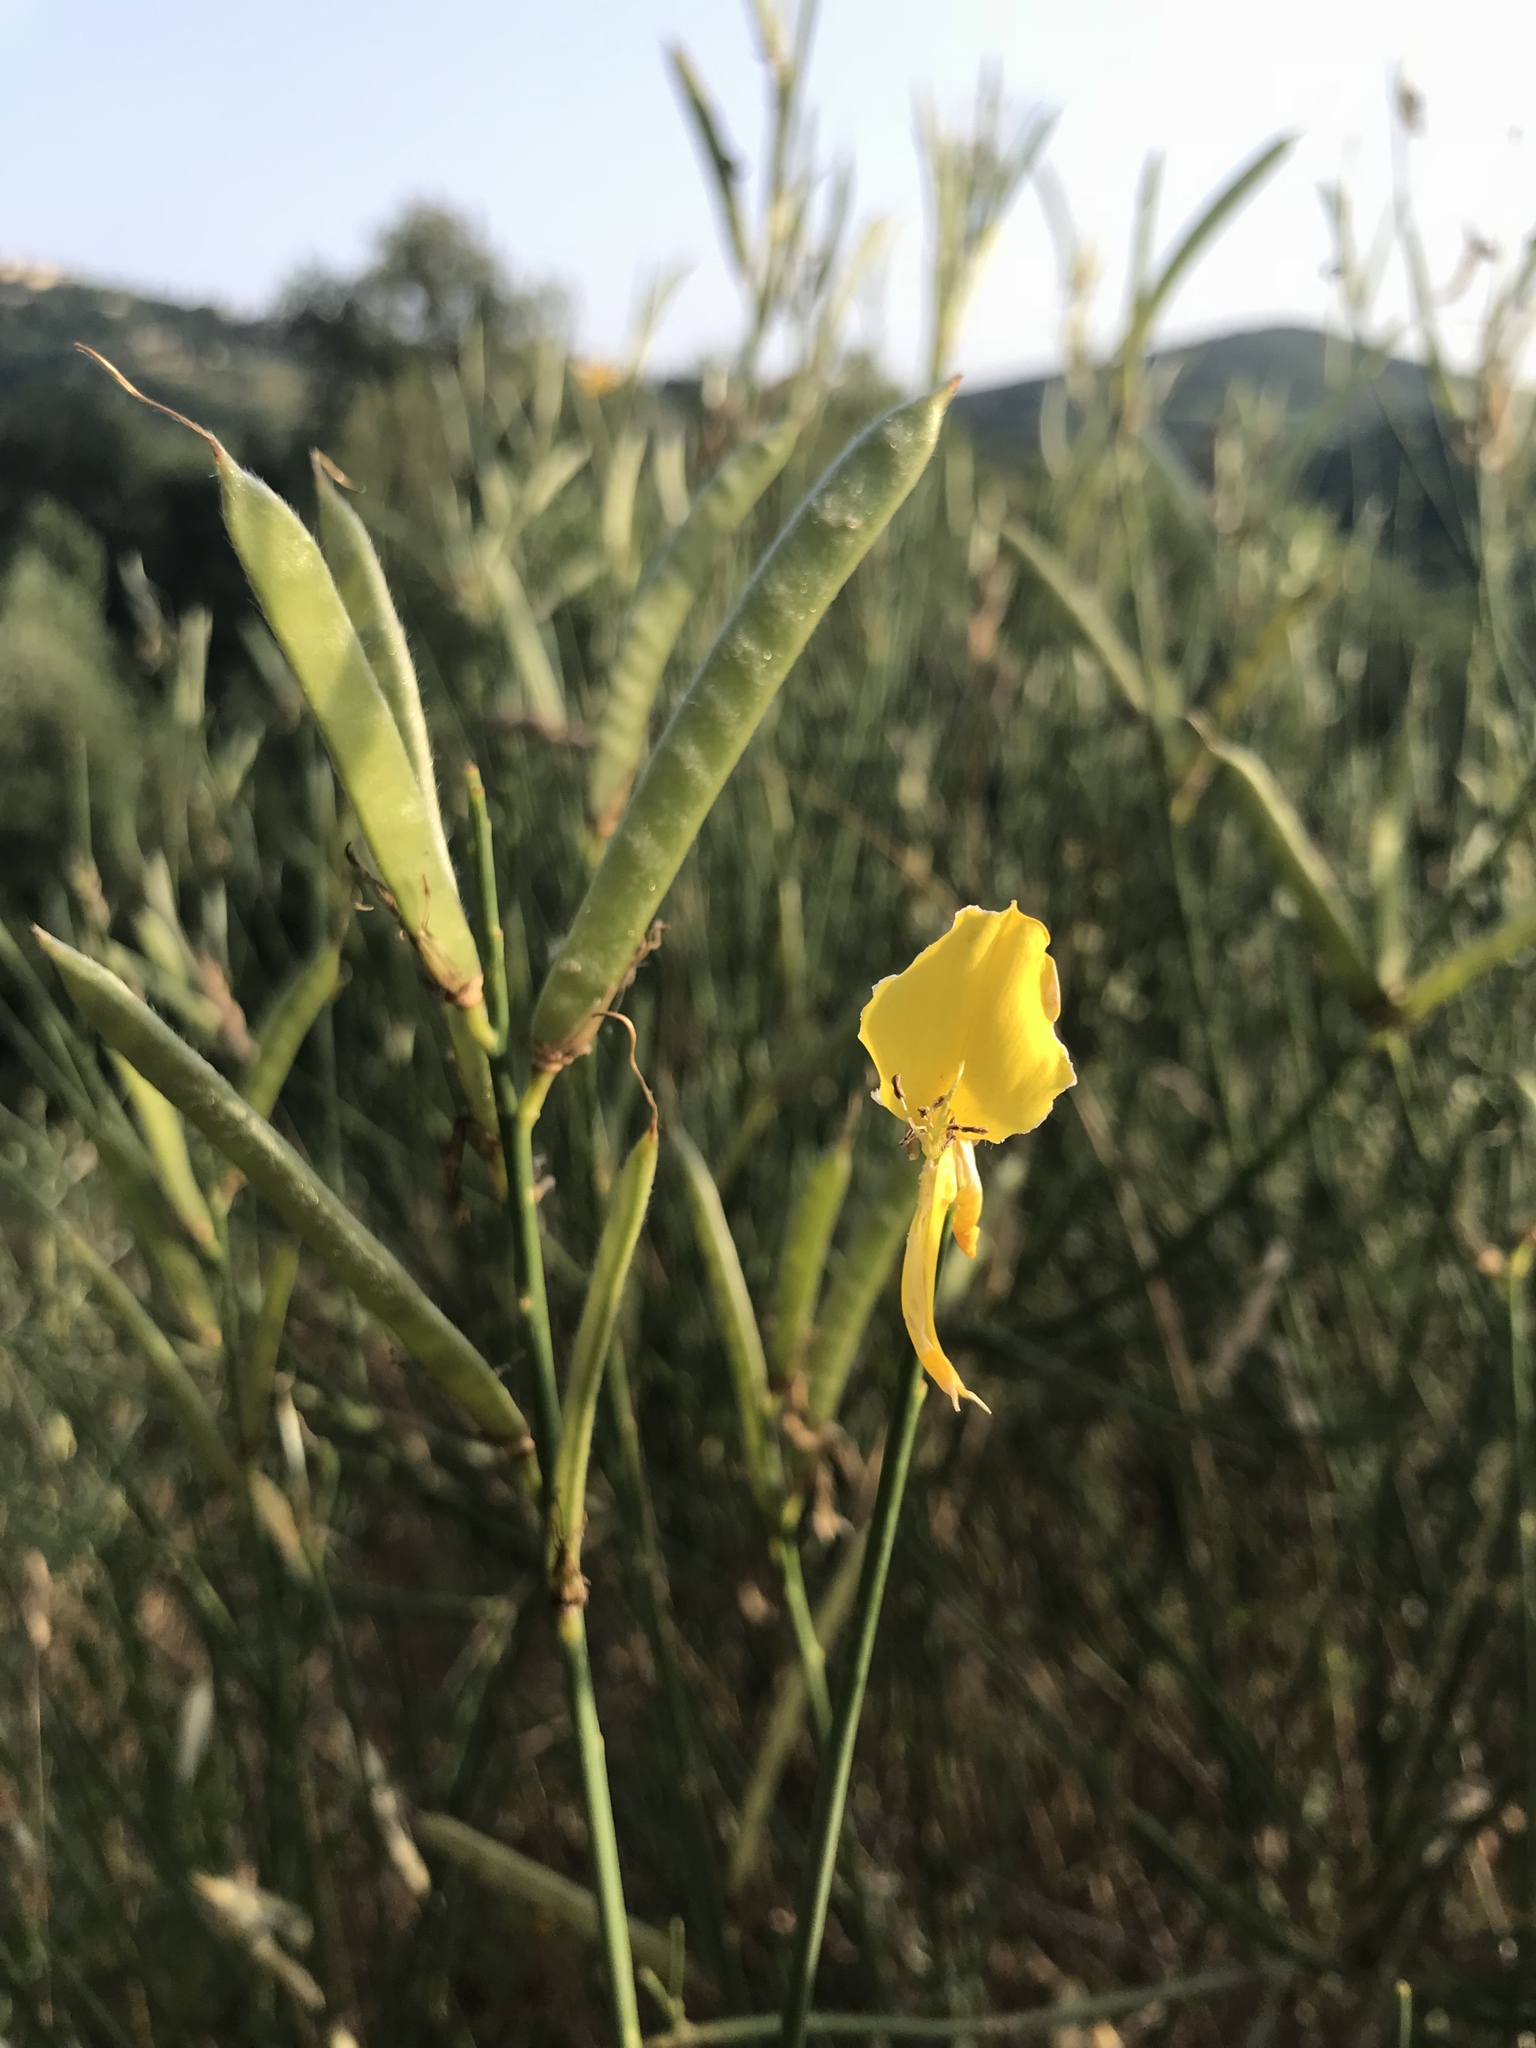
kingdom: Plantae
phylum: Tracheophyta
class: Magnoliopsida
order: Fabales
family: Fabaceae
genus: Spartium
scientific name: Spartium junceum
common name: Spanish broom
